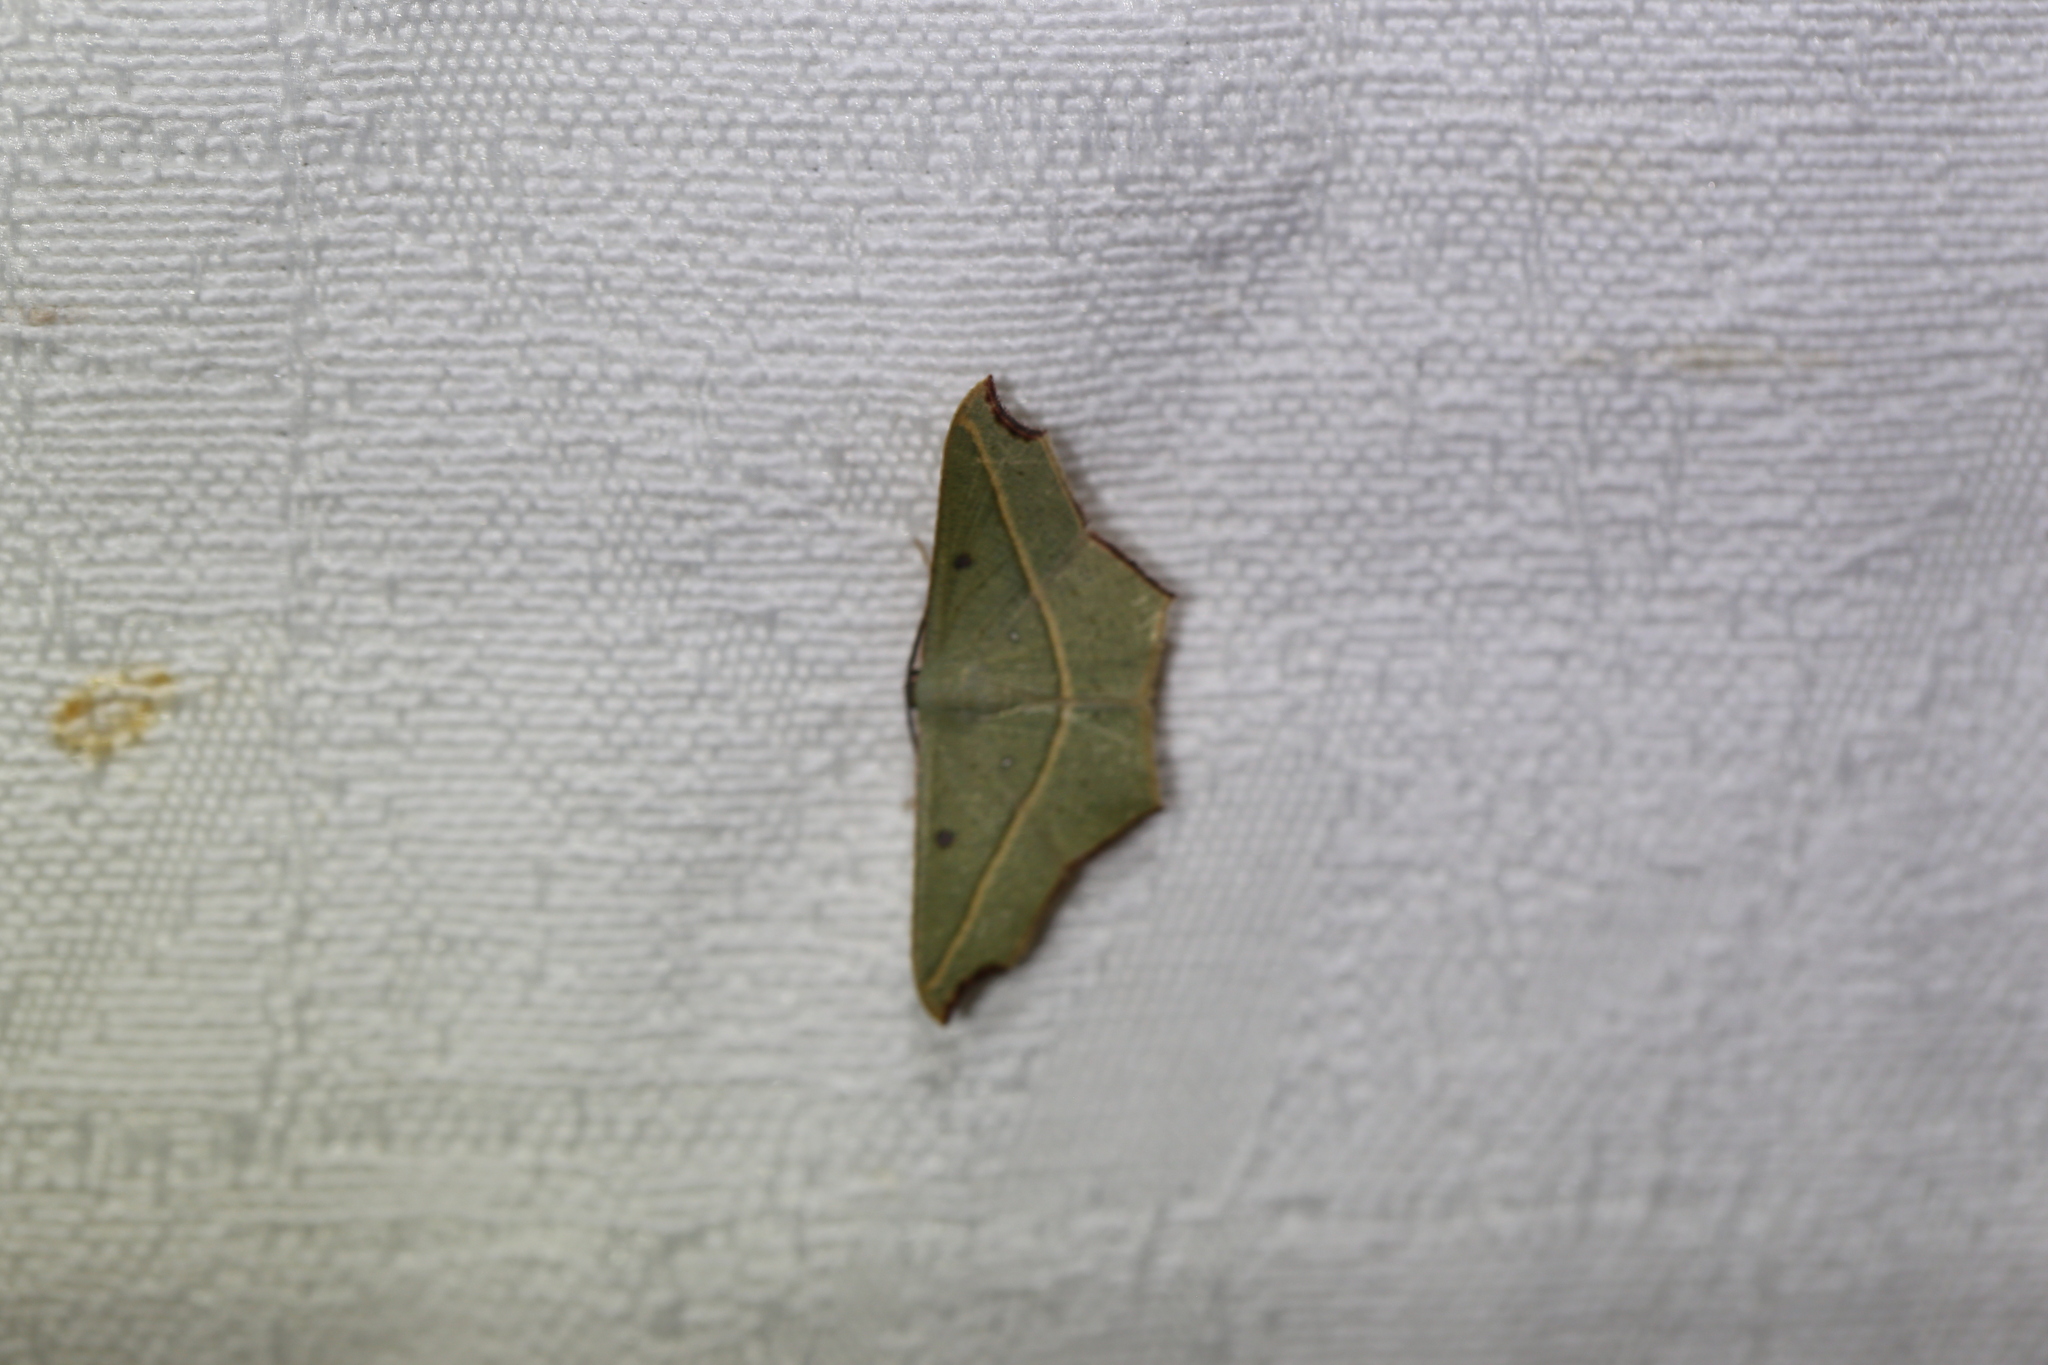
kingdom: Animalia
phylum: Arthropoda
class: Insecta
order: Lepidoptera
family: Geometridae
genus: Traminda
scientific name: Traminda aventiaria
